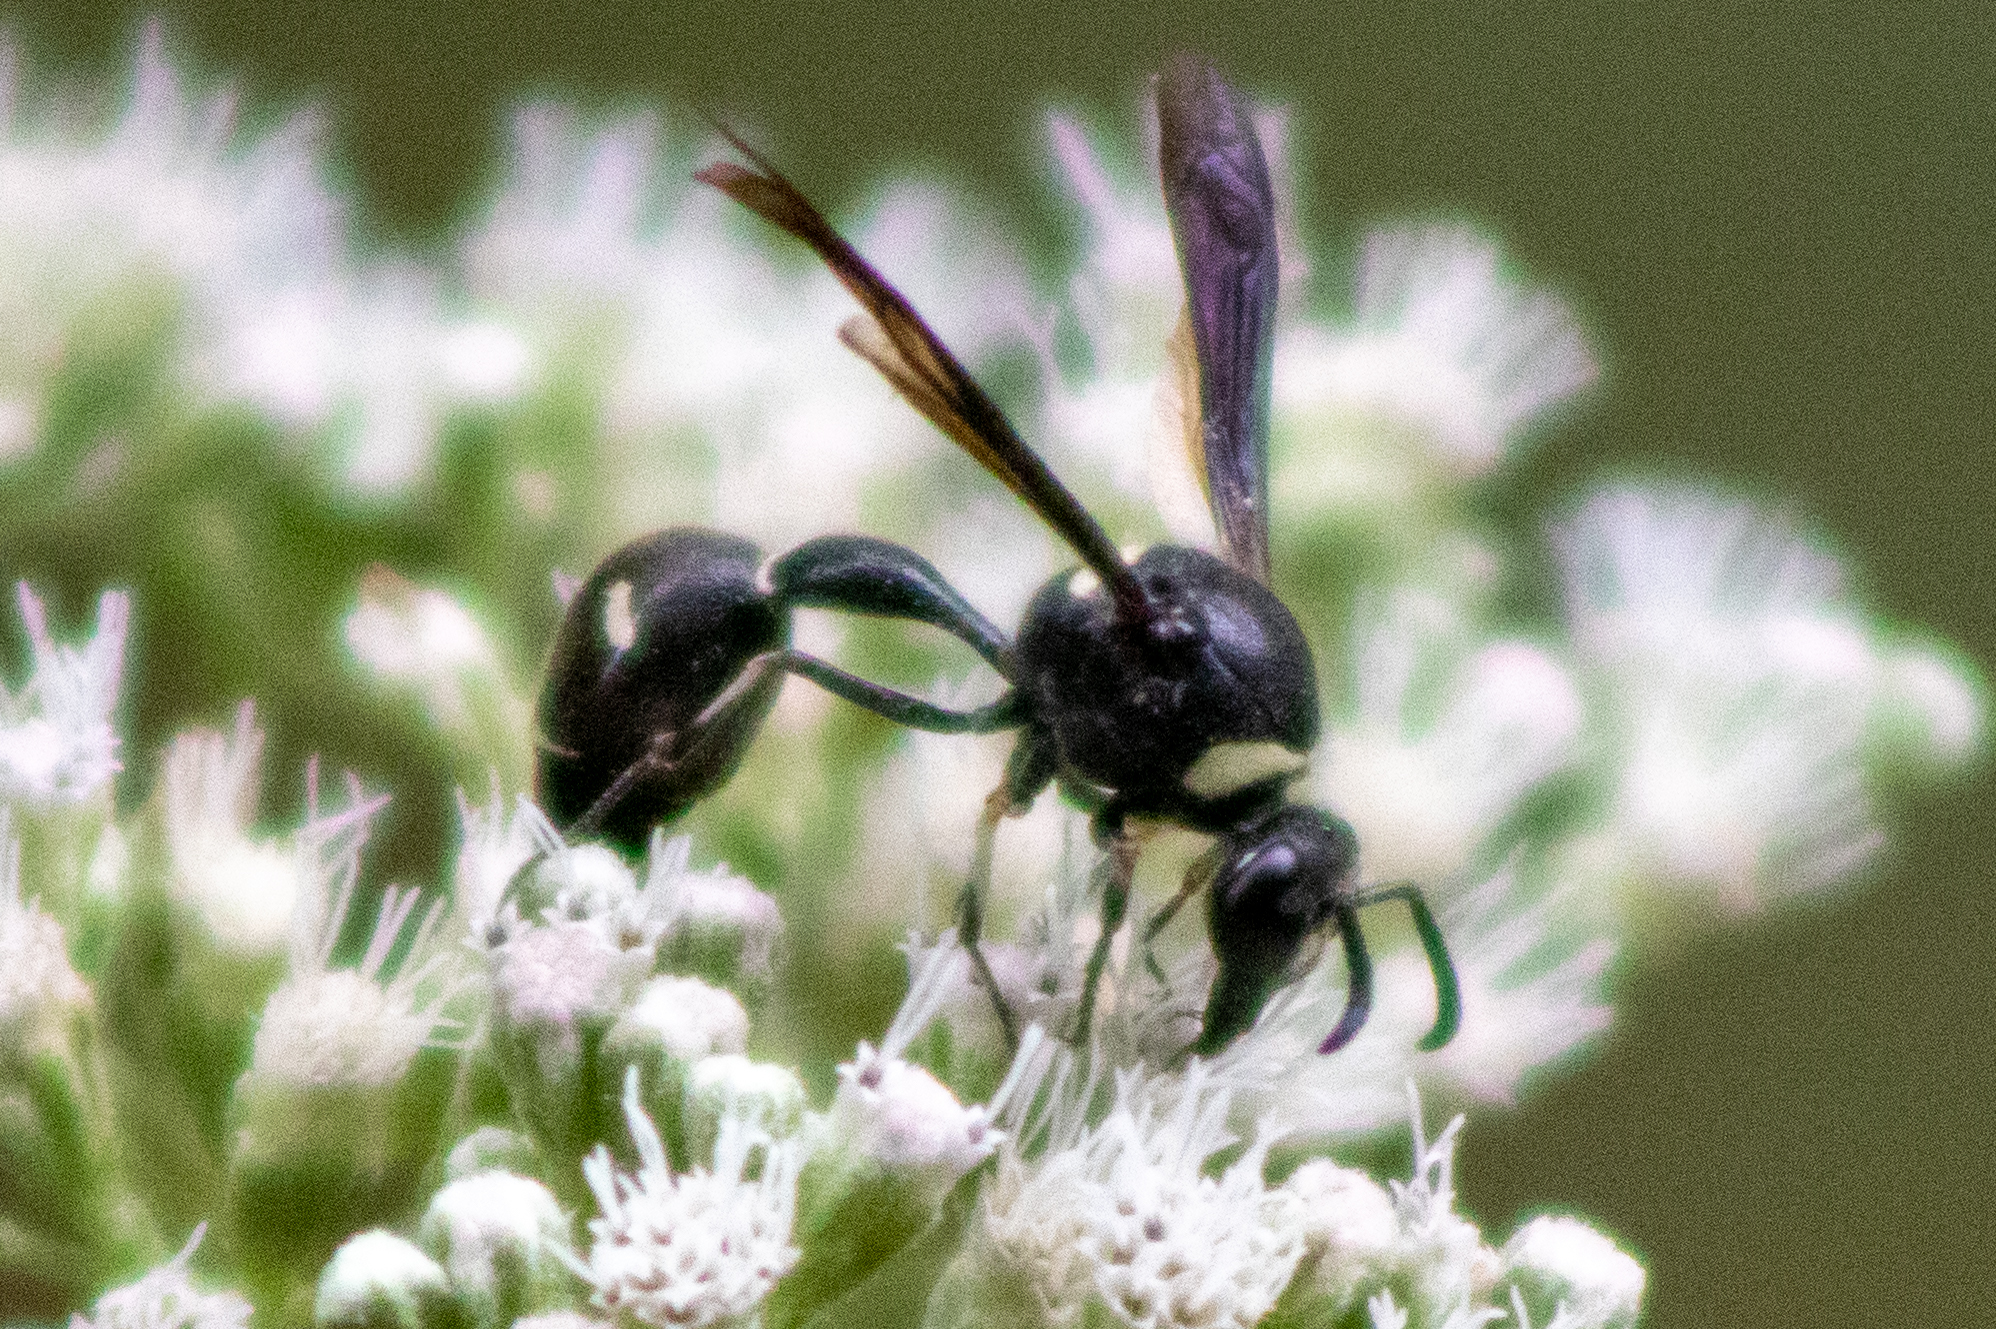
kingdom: Animalia
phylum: Arthropoda
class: Insecta
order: Hymenoptera
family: Vespidae
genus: Eumenes
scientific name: Eumenes fraternus
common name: Fraternal potter wasp
